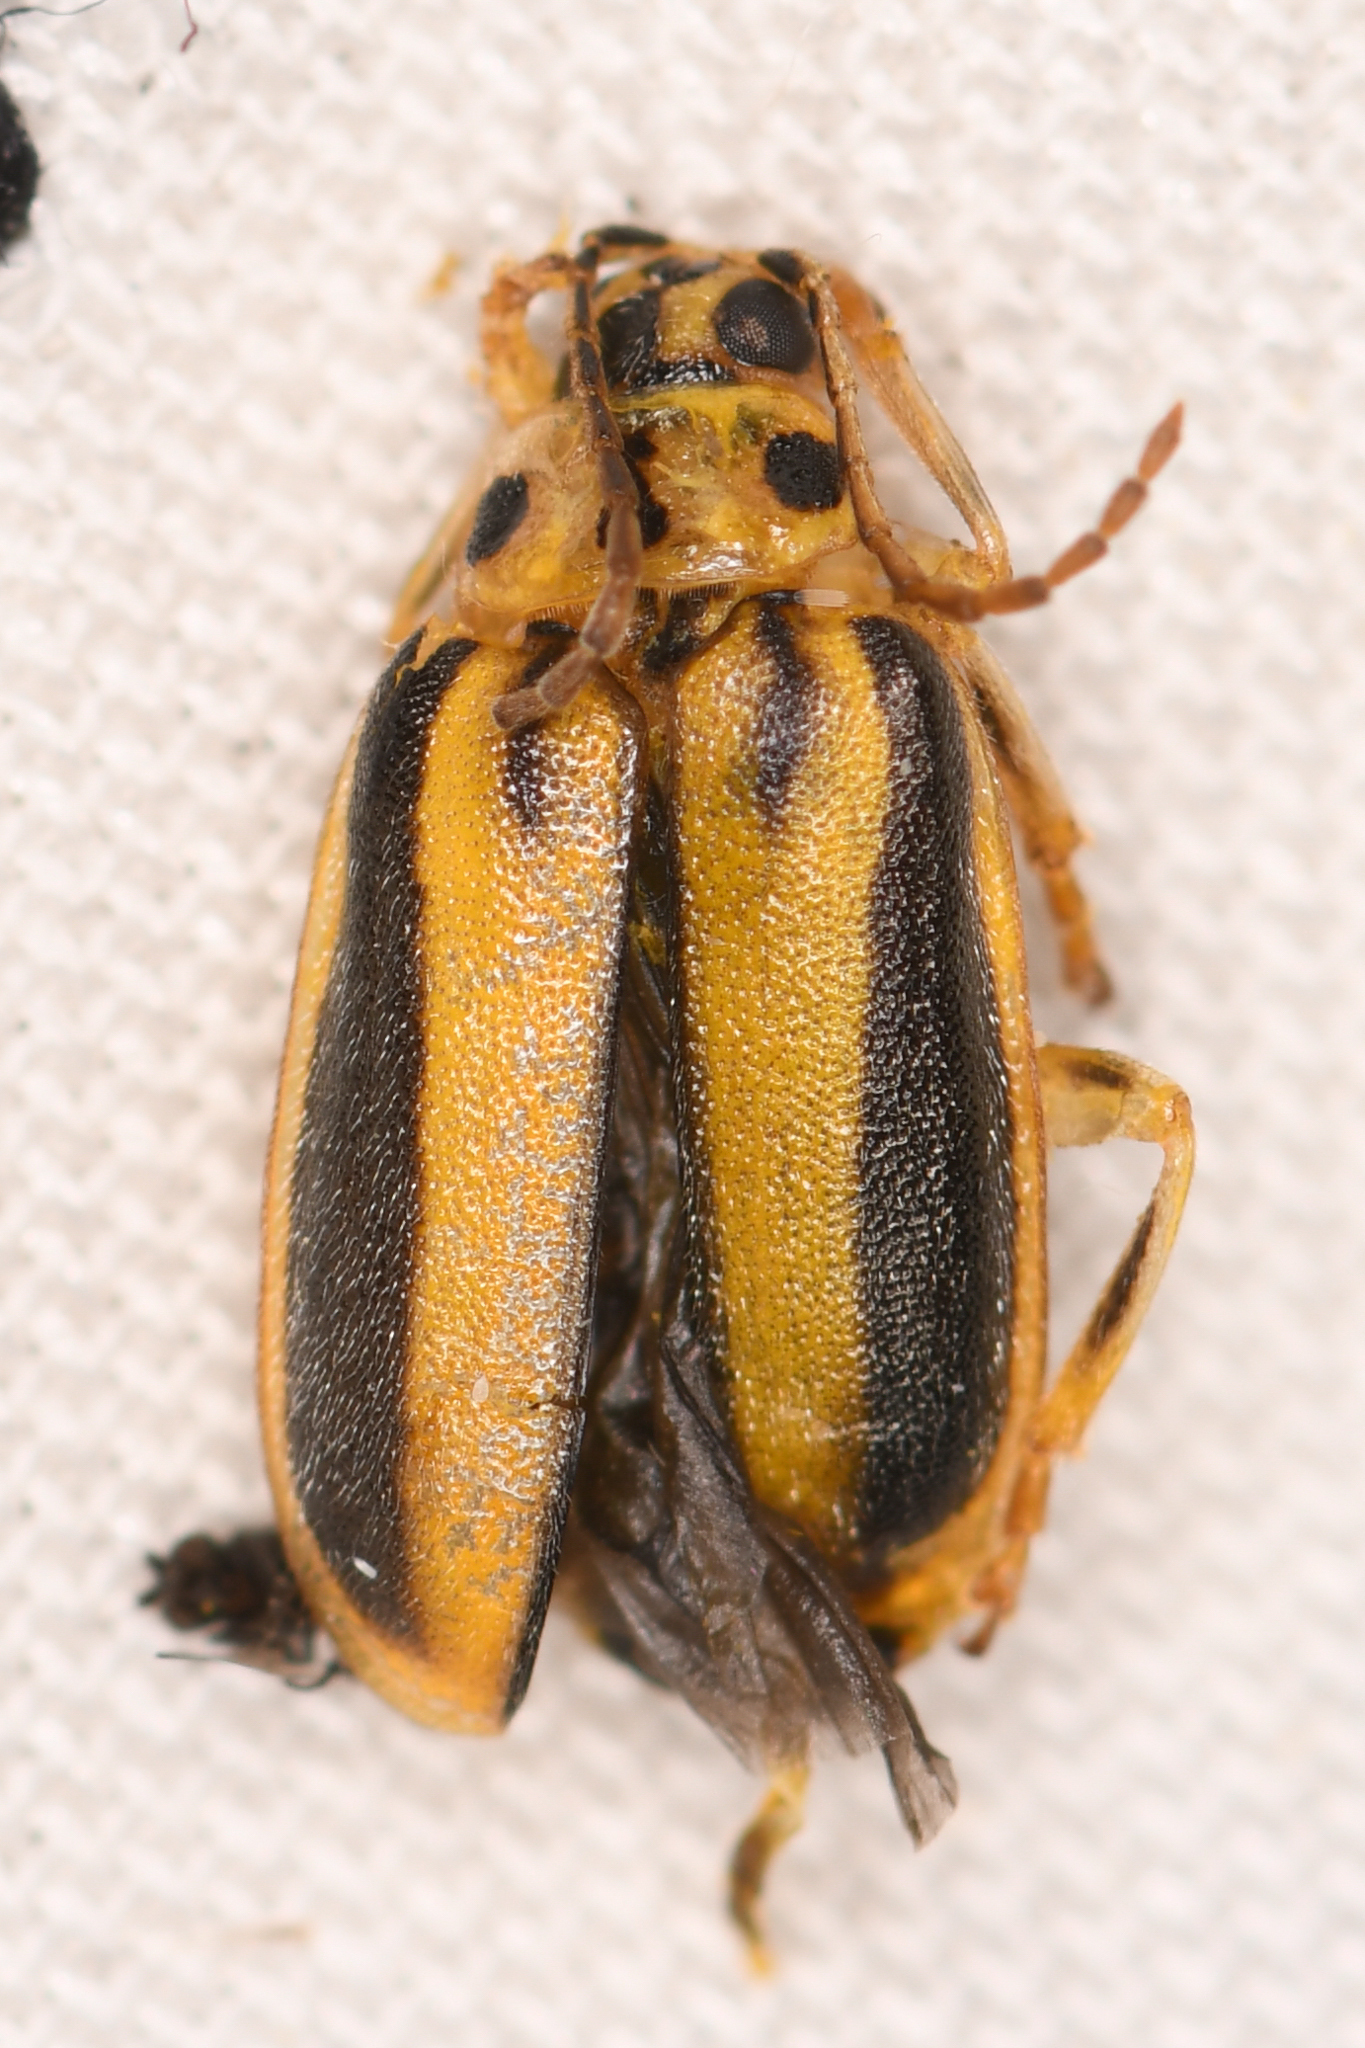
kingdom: Animalia
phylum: Arthropoda
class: Insecta
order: Coleoptera
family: Chrysomelidae
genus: Xanthogaleruca
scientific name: Xanthogaleruca luteola
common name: Elm leaf beetle
